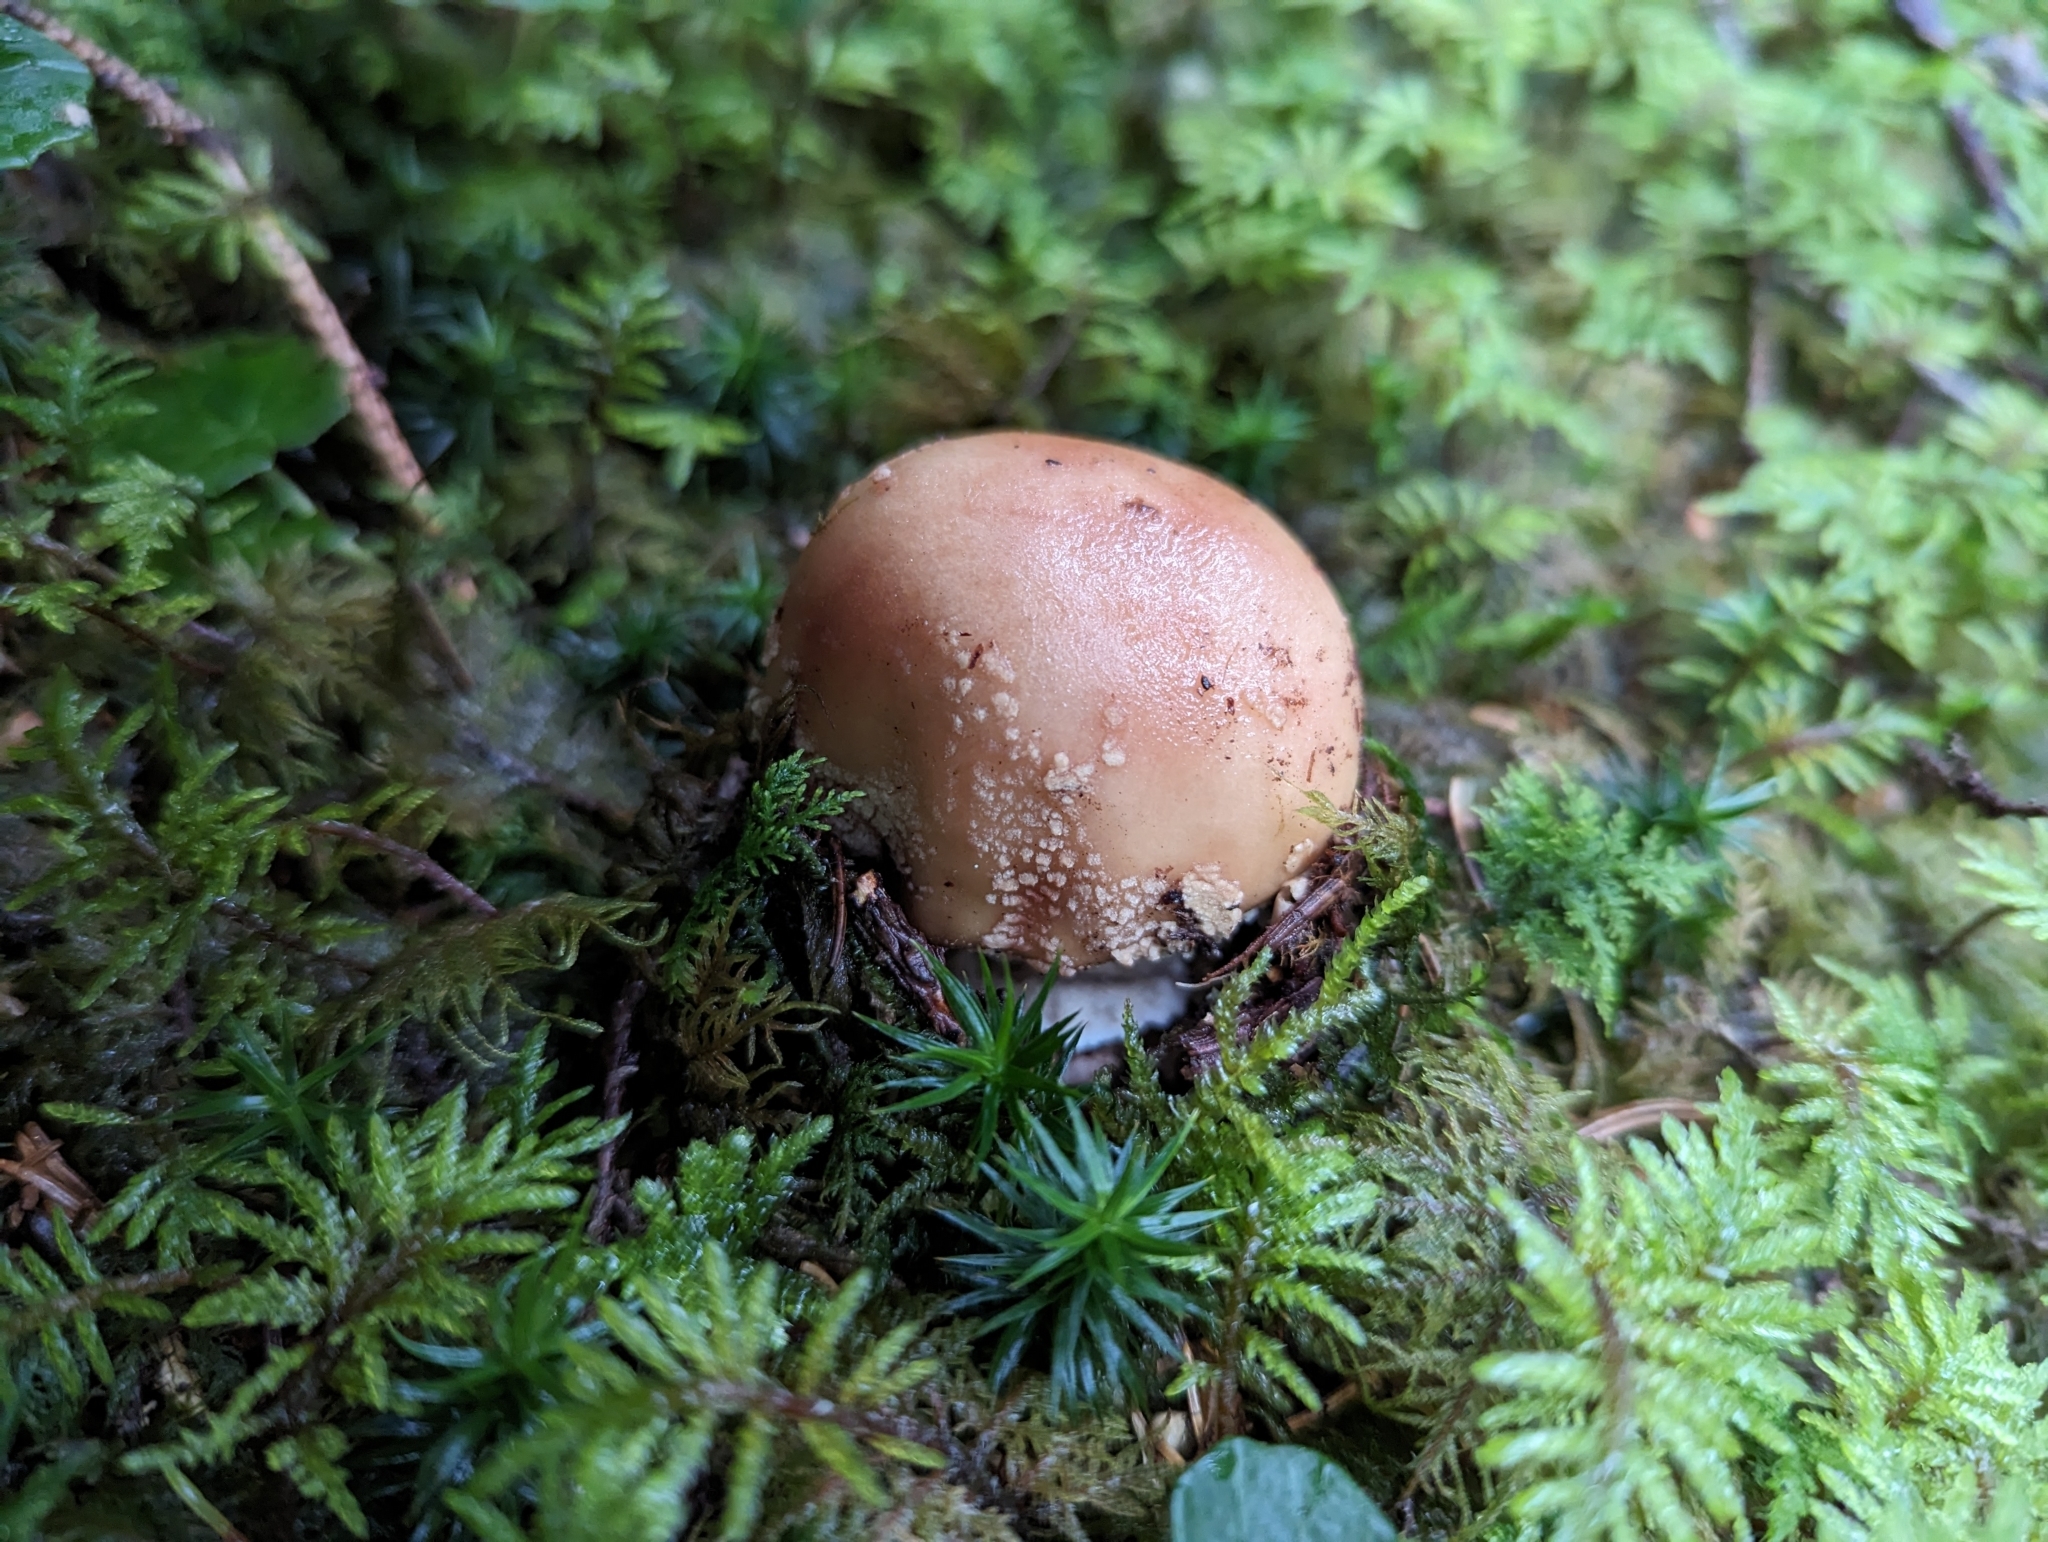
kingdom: Fungi
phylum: Basidiomycota
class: Agaricomycetes
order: Agaricales
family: Amanitaceae
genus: Amanita
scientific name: Amanita rubescens
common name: Blusher
